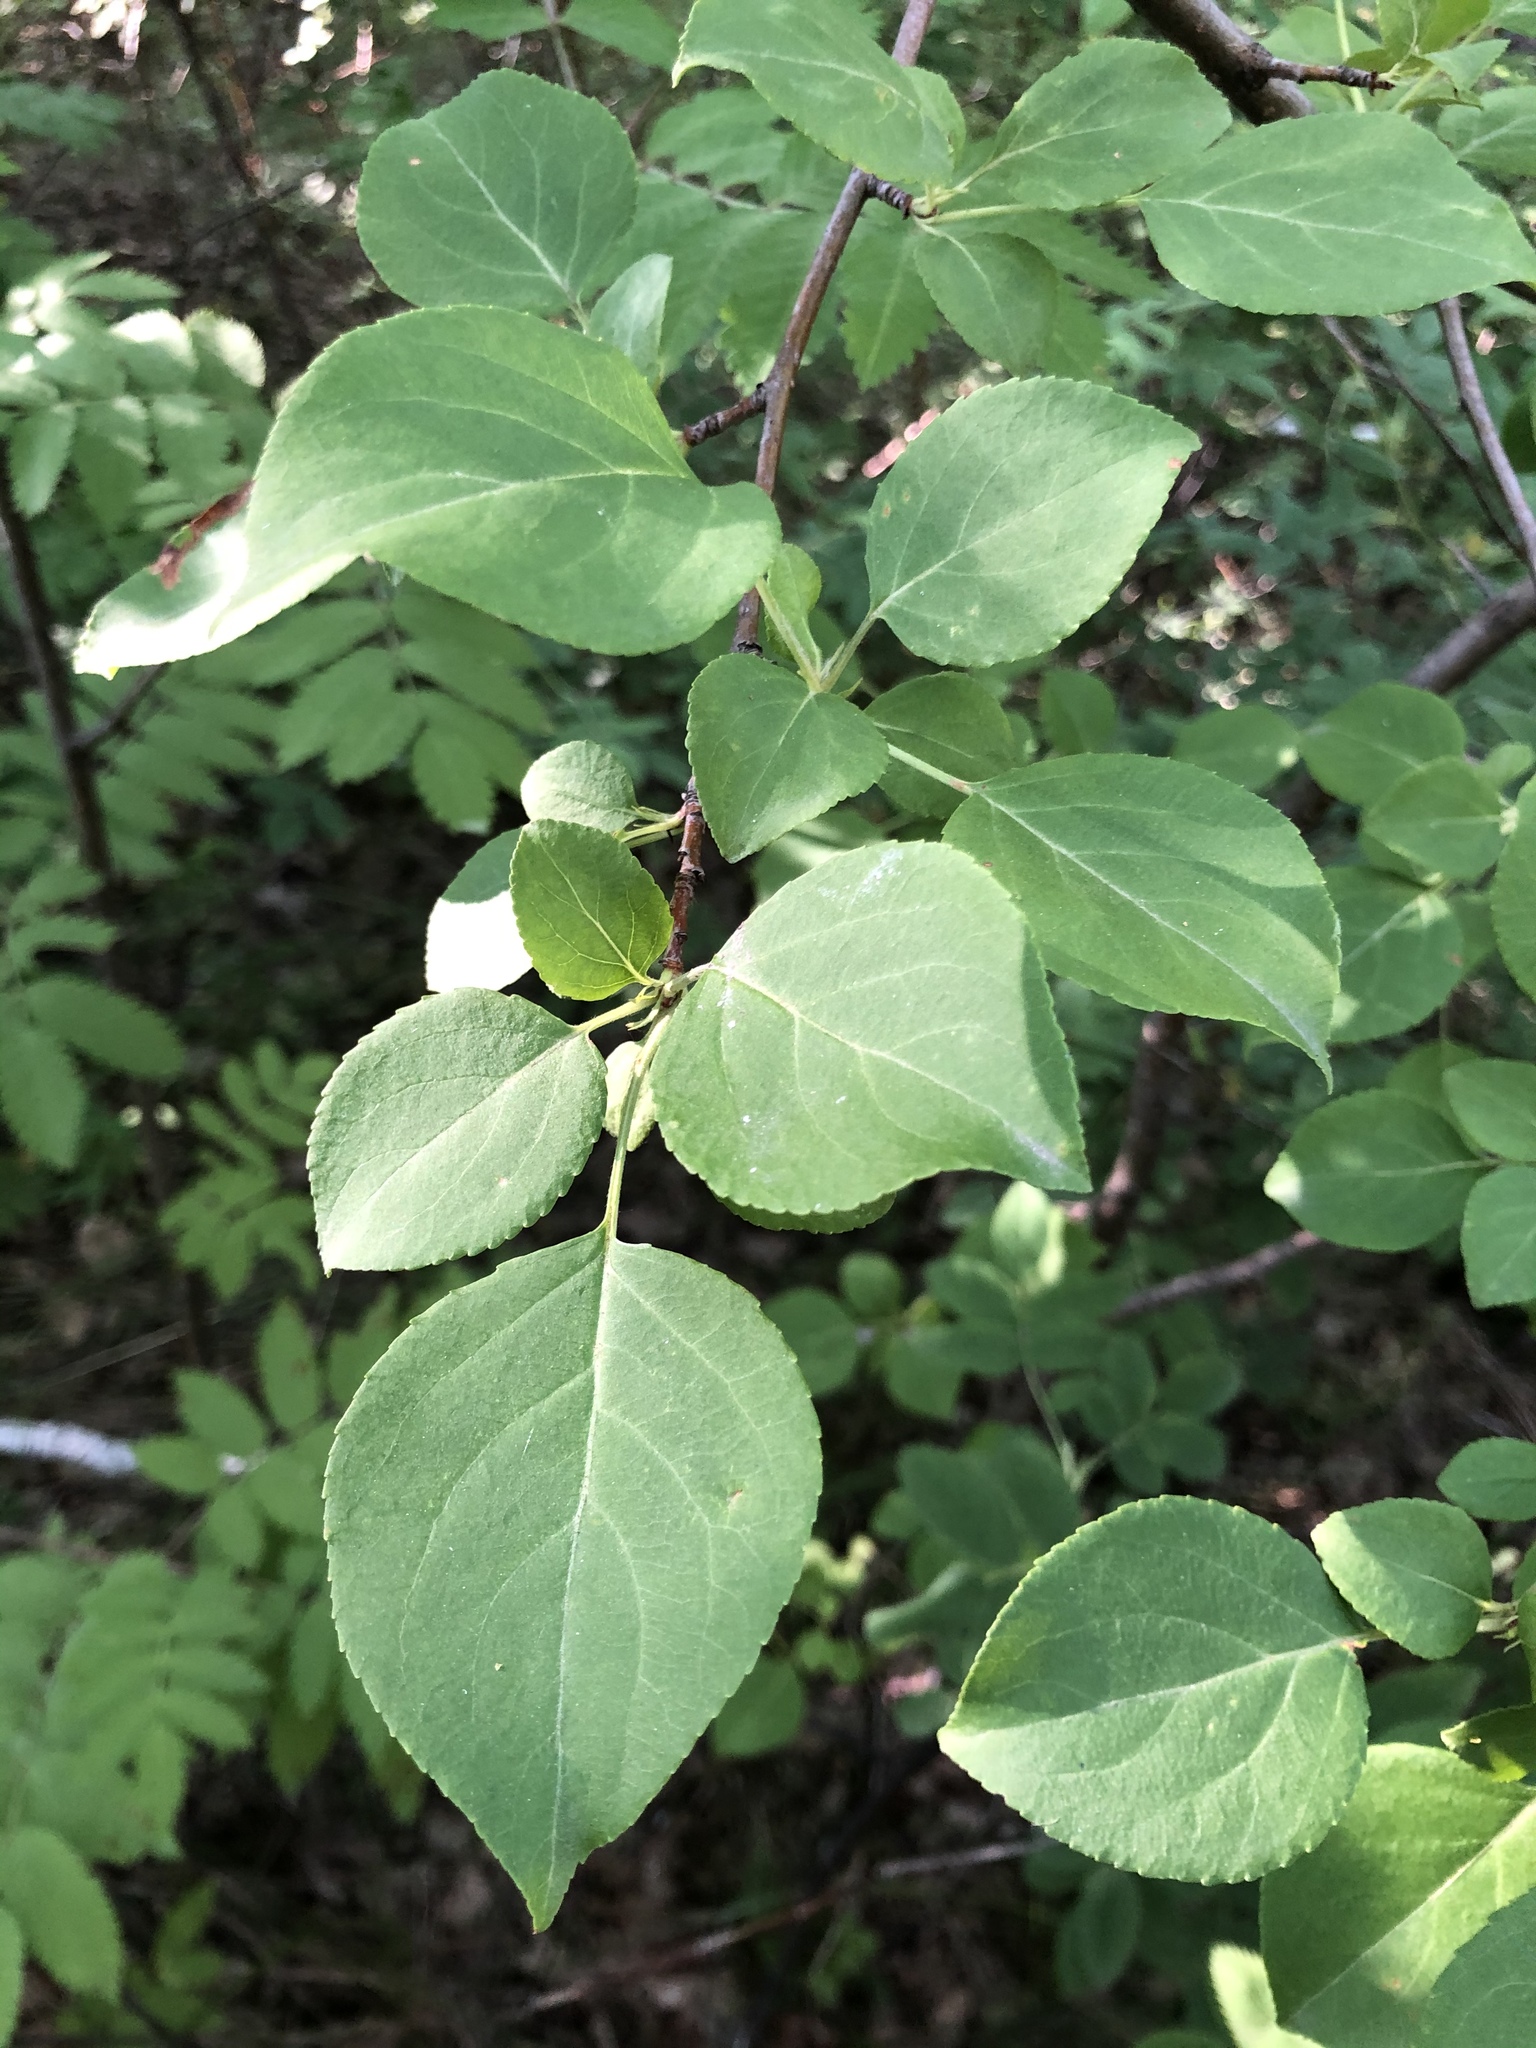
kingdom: Plantae
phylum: Tracheophyta
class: Magnoliopsida
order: Rosales
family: Rosaceae
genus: Malus
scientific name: Malus baccata
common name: Siberian crab
